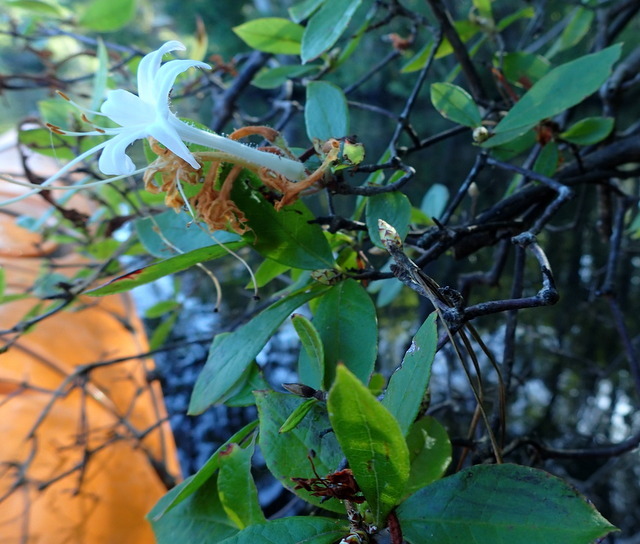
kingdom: Plantae
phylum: Tracheophyta
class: Magnoliopsida
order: Ericales
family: Ericaceae
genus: Rhododendron
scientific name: Rhododendron serrulatum
